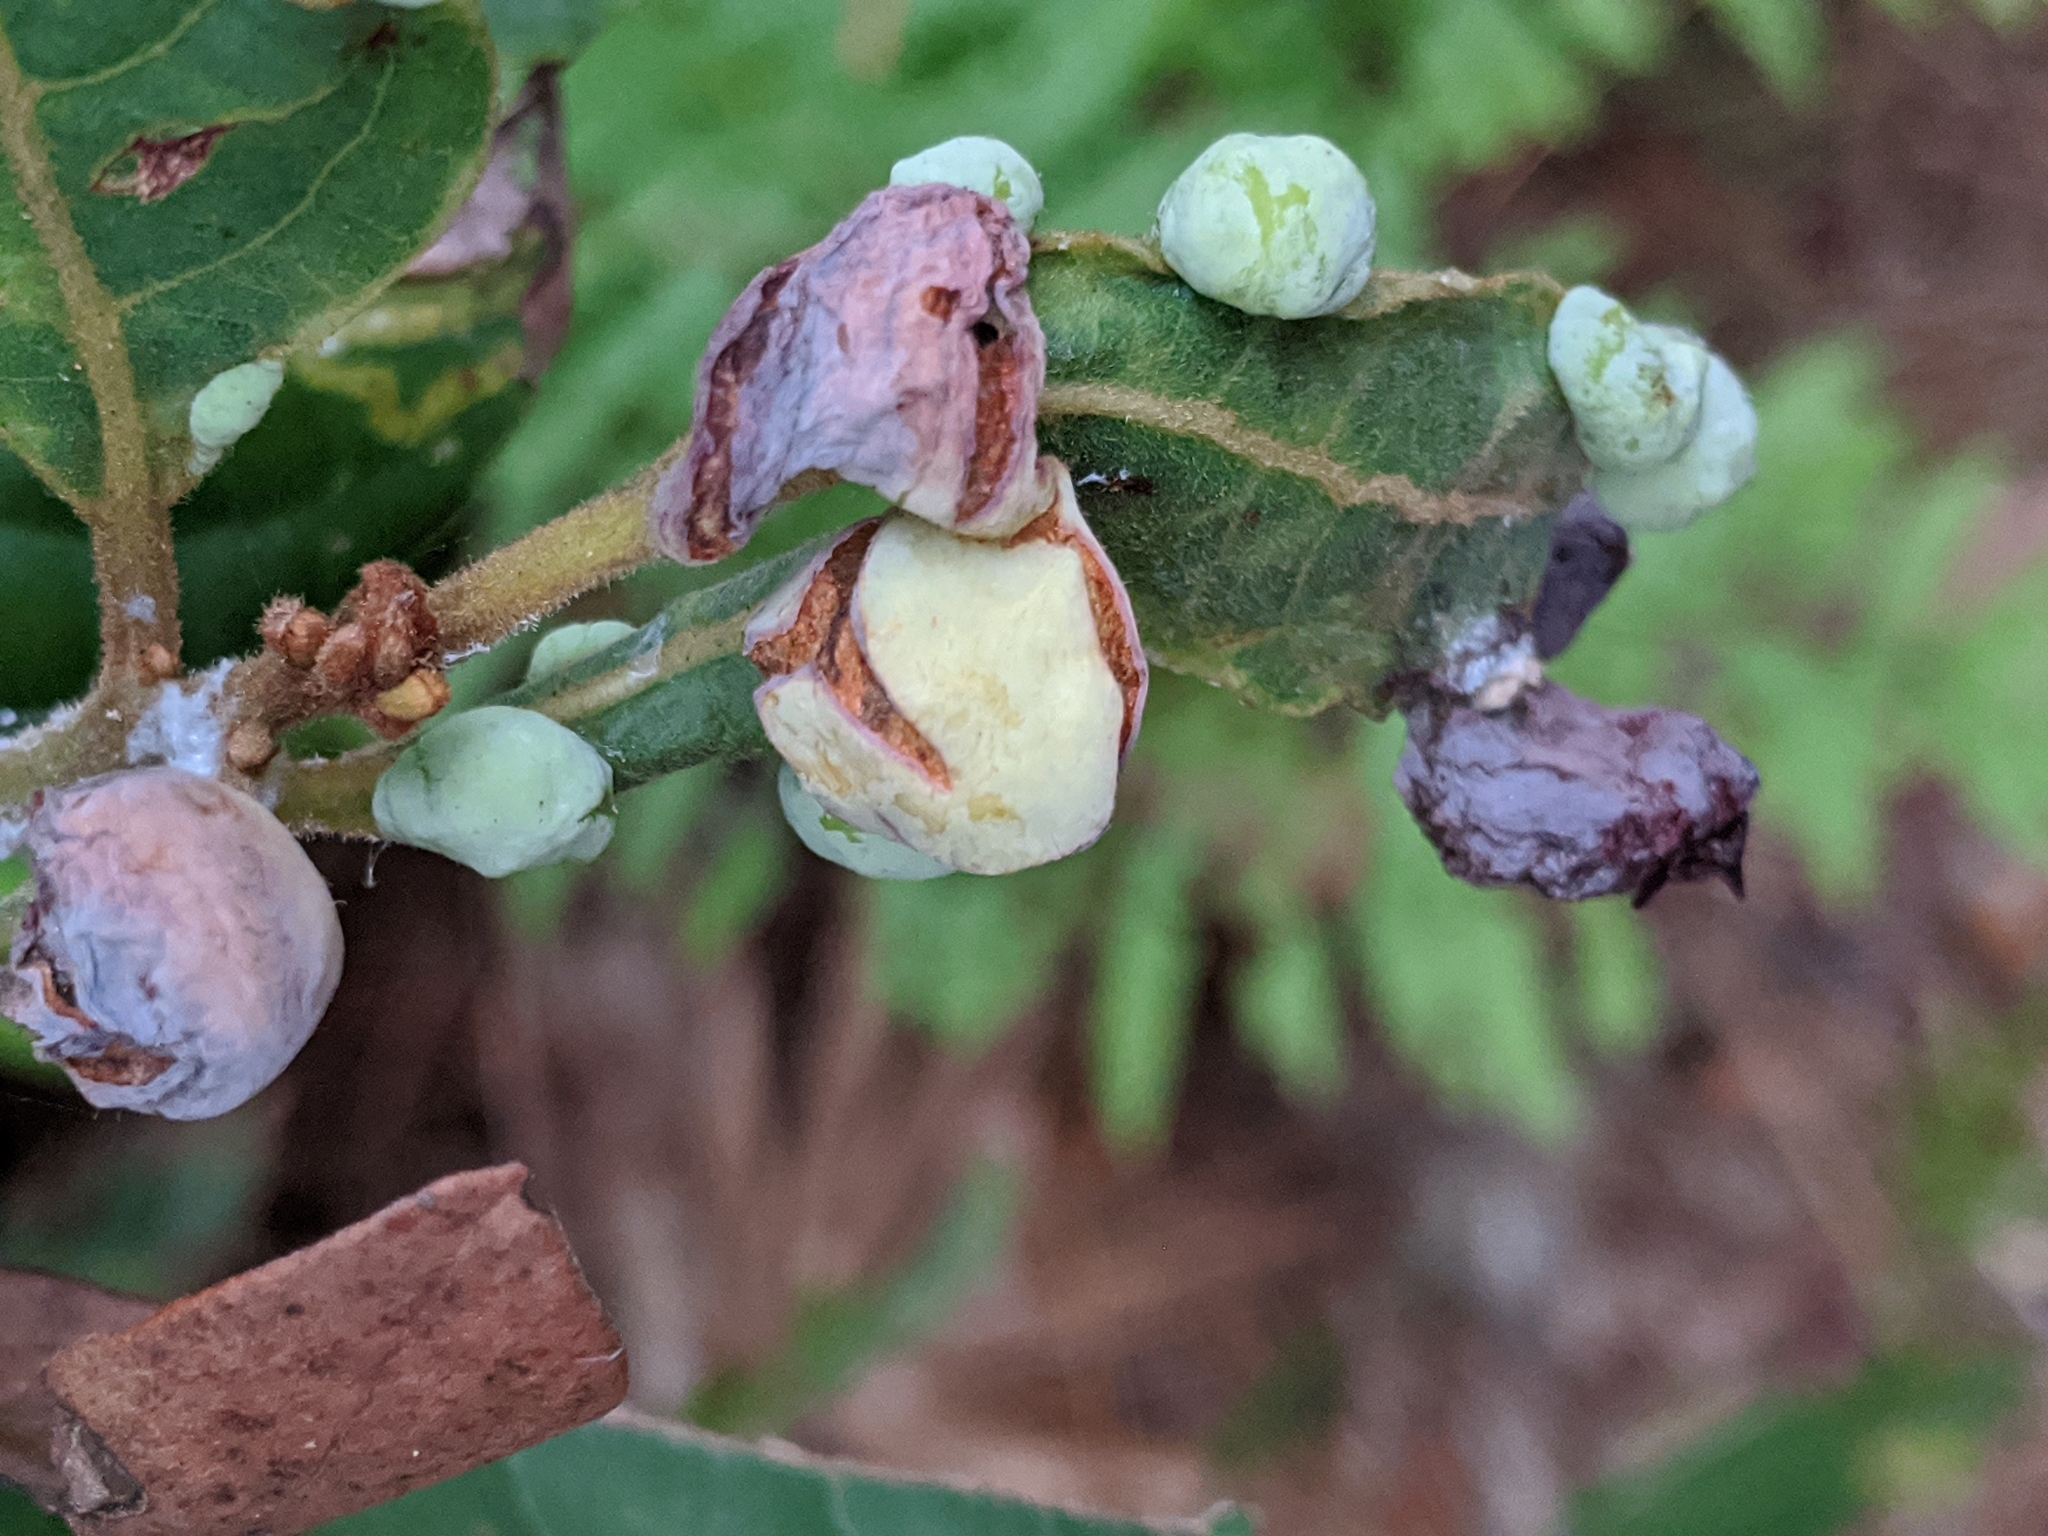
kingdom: Animalia
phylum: Arthropoda
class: Insecta
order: Hemiptera
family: Triozidae
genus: Trioza
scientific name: Trioza magnoliae
